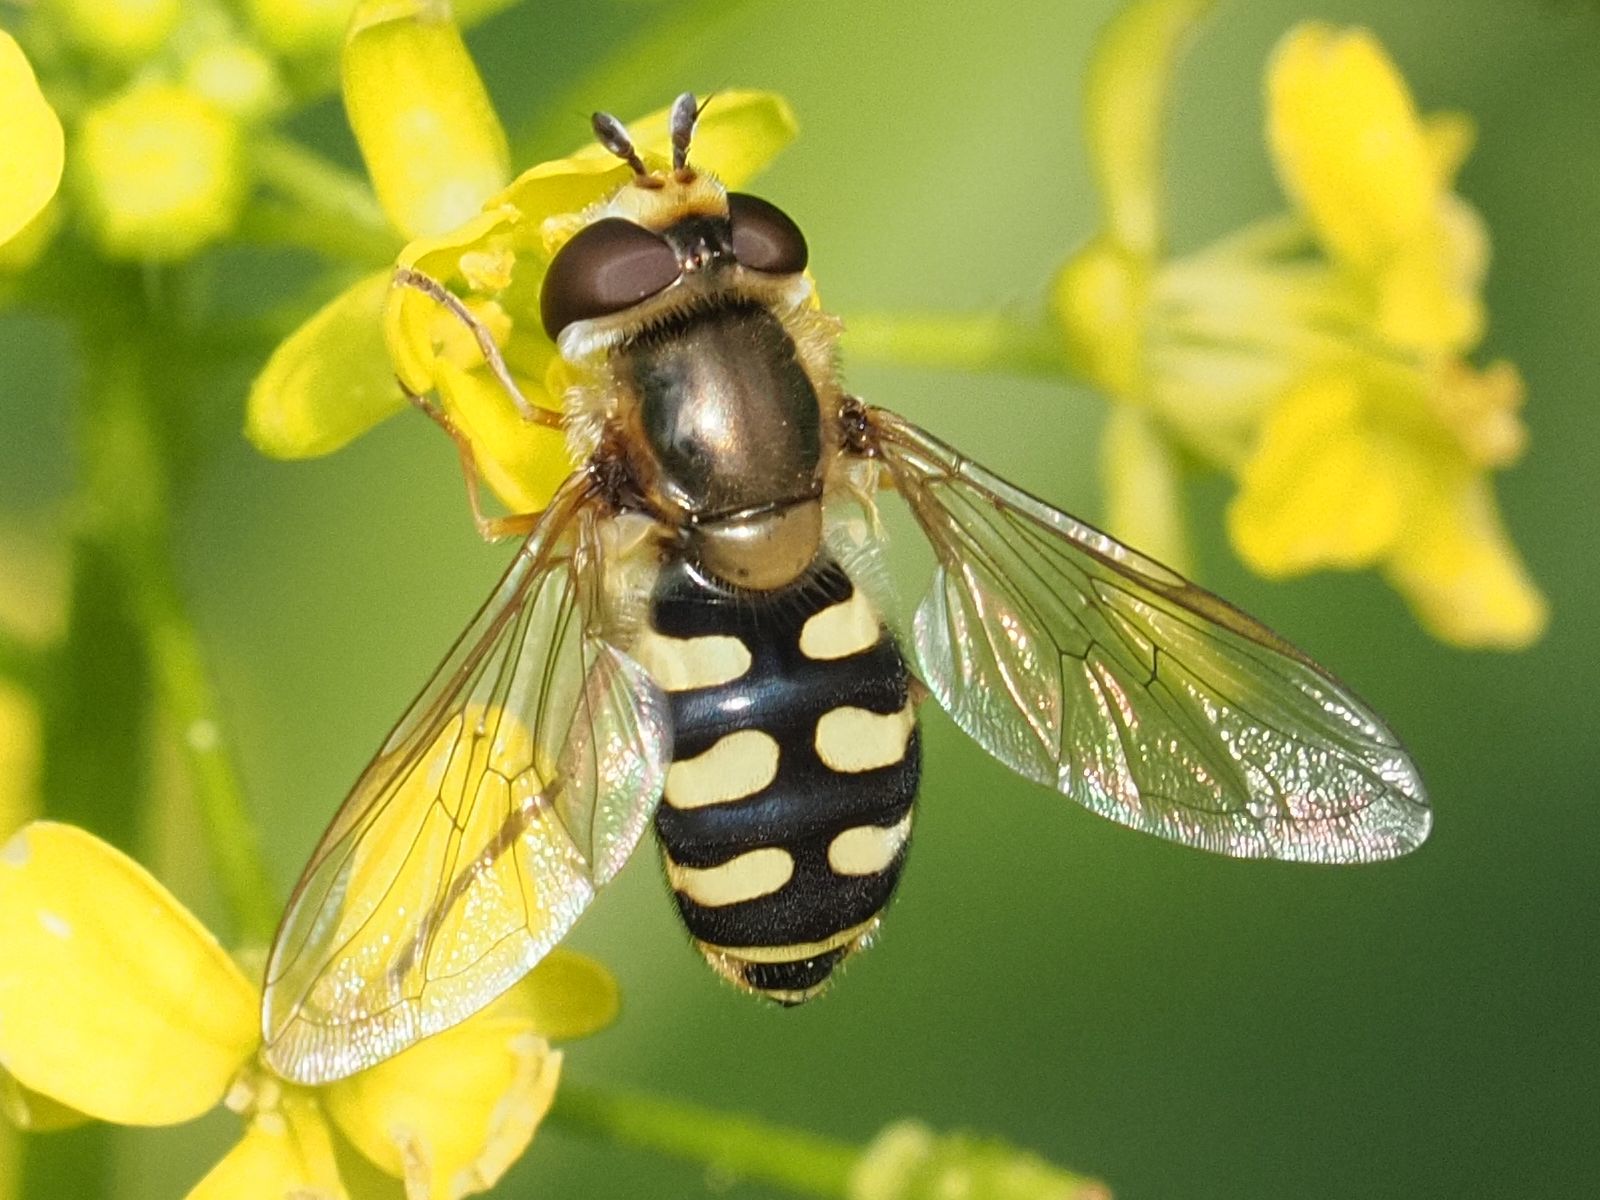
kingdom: Animalia
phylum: Arthropoda
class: Insecta
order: Diptera
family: Syrphidae
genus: Eupeodes
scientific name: Eupeodes corollae
